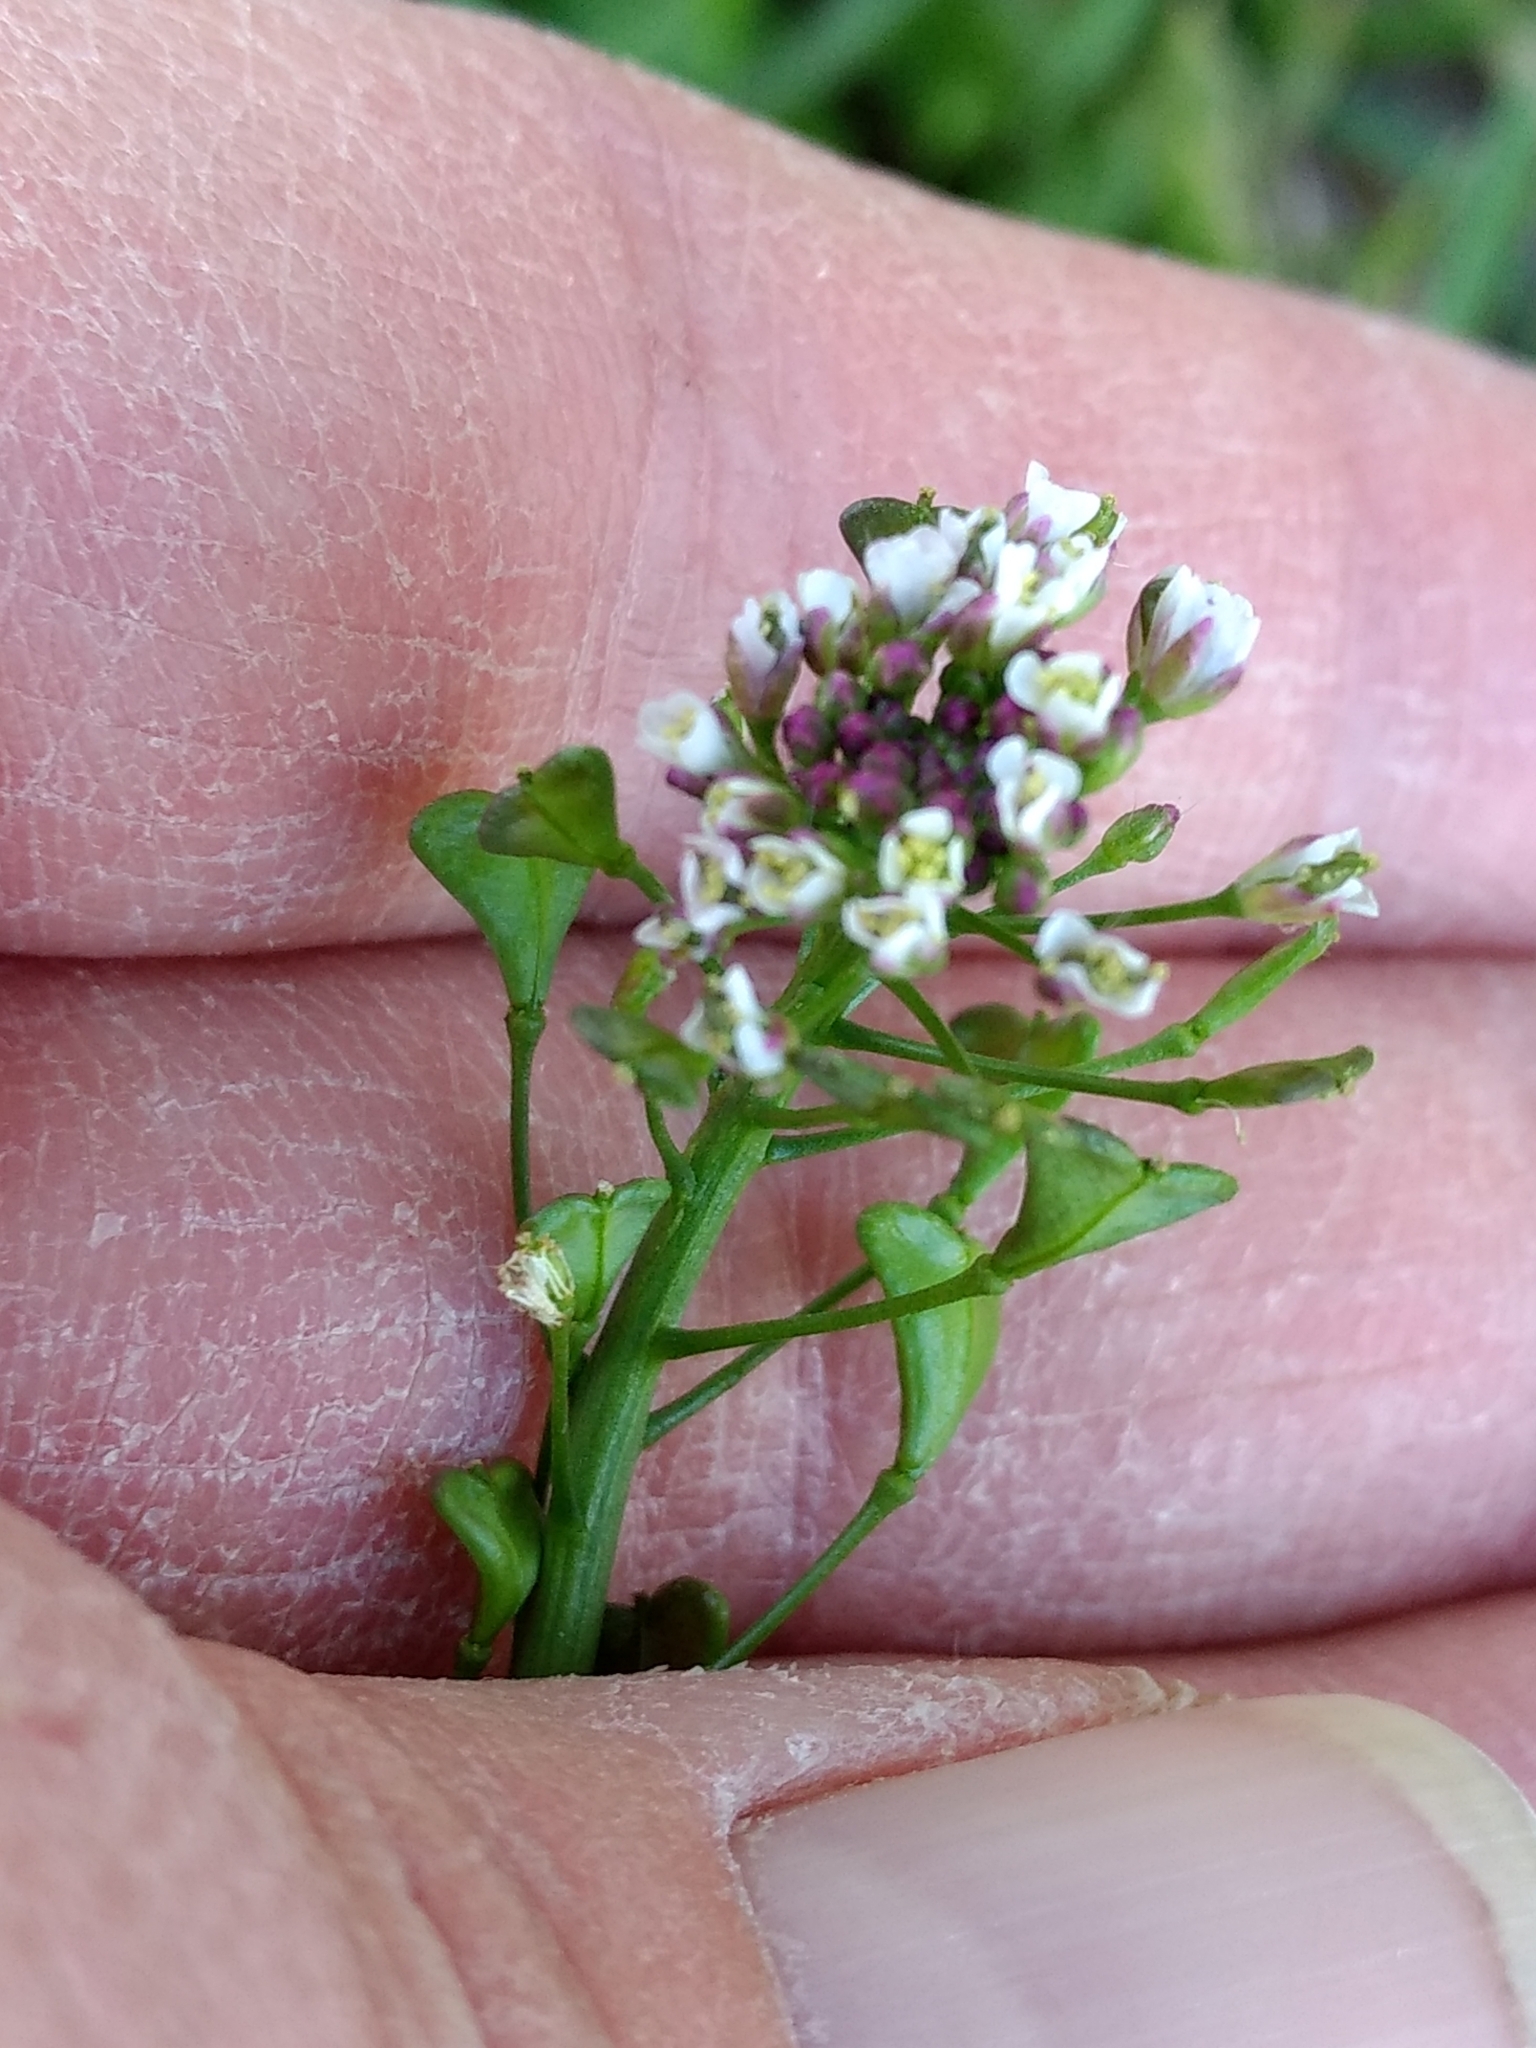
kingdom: Plantae
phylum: Tracheophyta
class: Magnoliopsida
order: Brassicales
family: Brassicaceae
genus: Capsella
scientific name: Capsella bursa-pastoris
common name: Shepherd's purse
